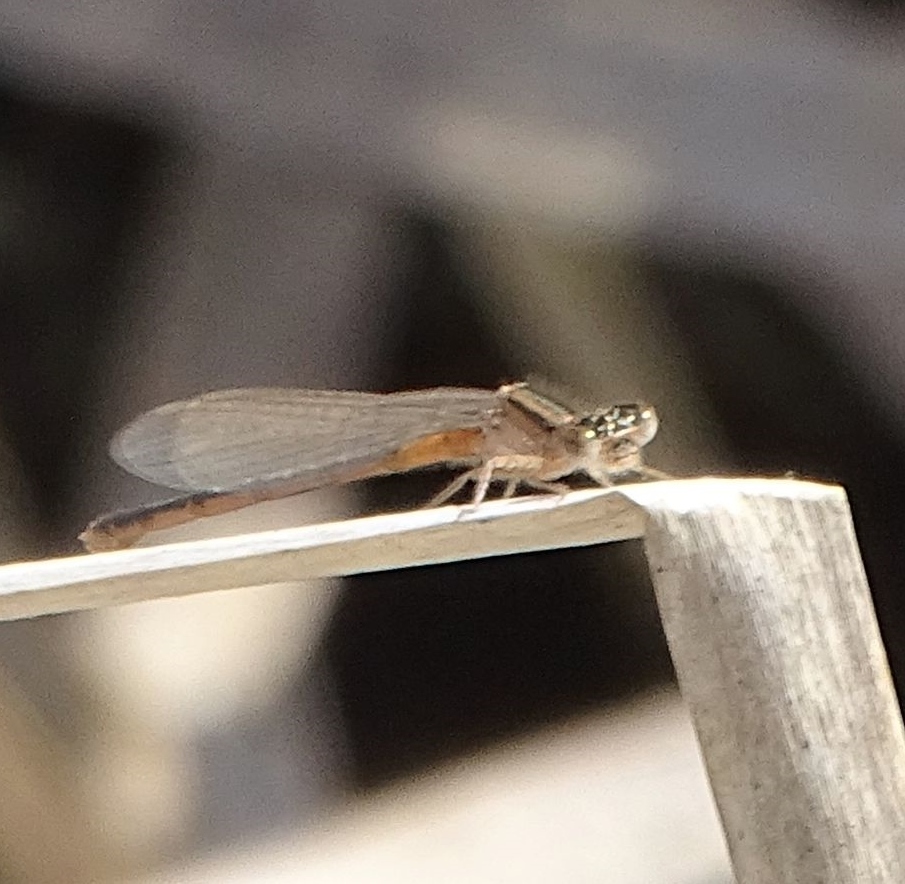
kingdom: Animalia
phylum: Arthropoda
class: Insecta
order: Odonata
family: Coenagrionidae
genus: Ischnura
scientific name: Ischnura verticalis
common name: Eastern forktail
